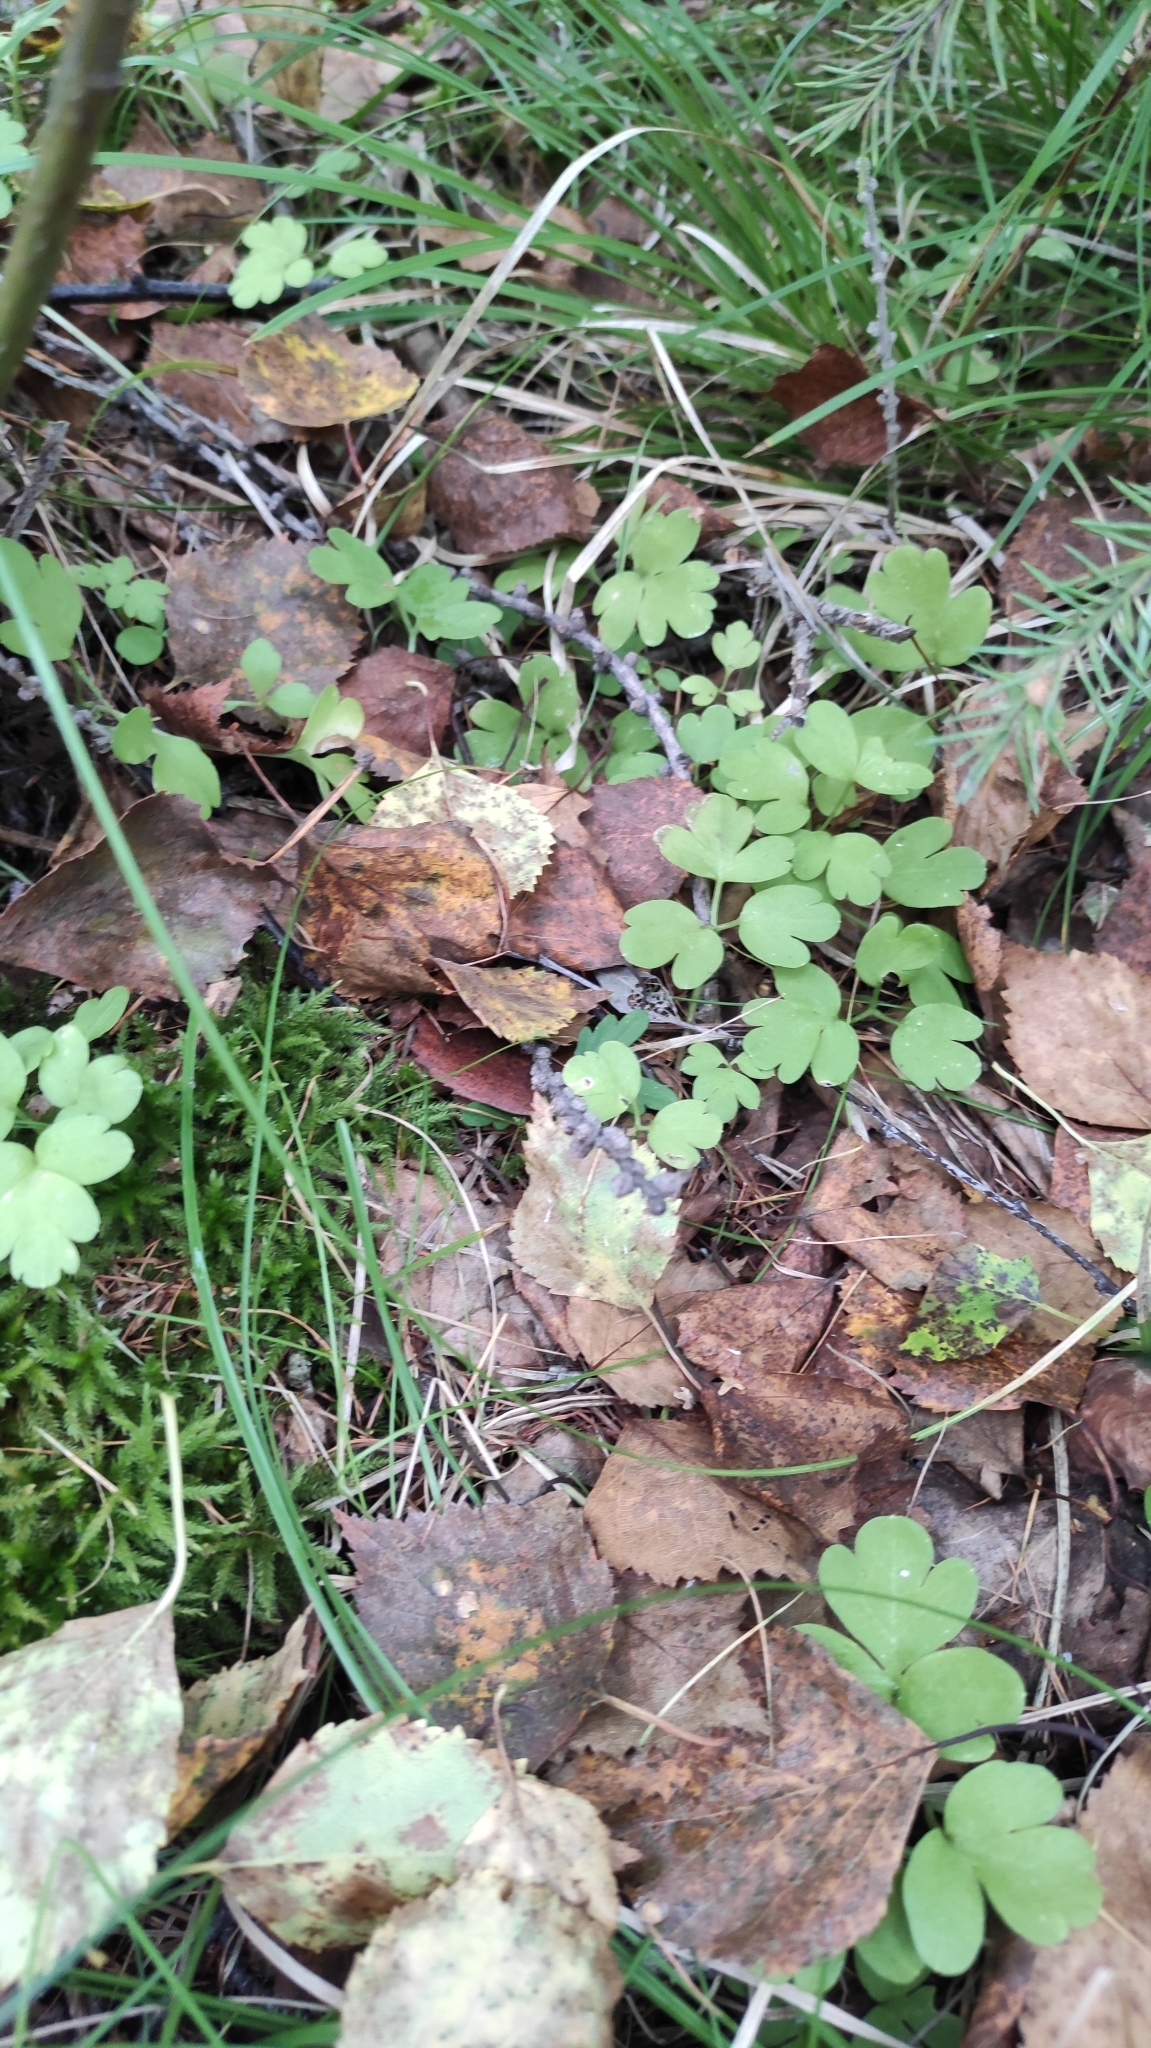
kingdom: Plantae
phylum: Tracheophyta
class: Magnoliopsida
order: Dipsacales
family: Viburnaceae
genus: Adoxa
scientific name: Adoxa moschatellina
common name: Moschatel
